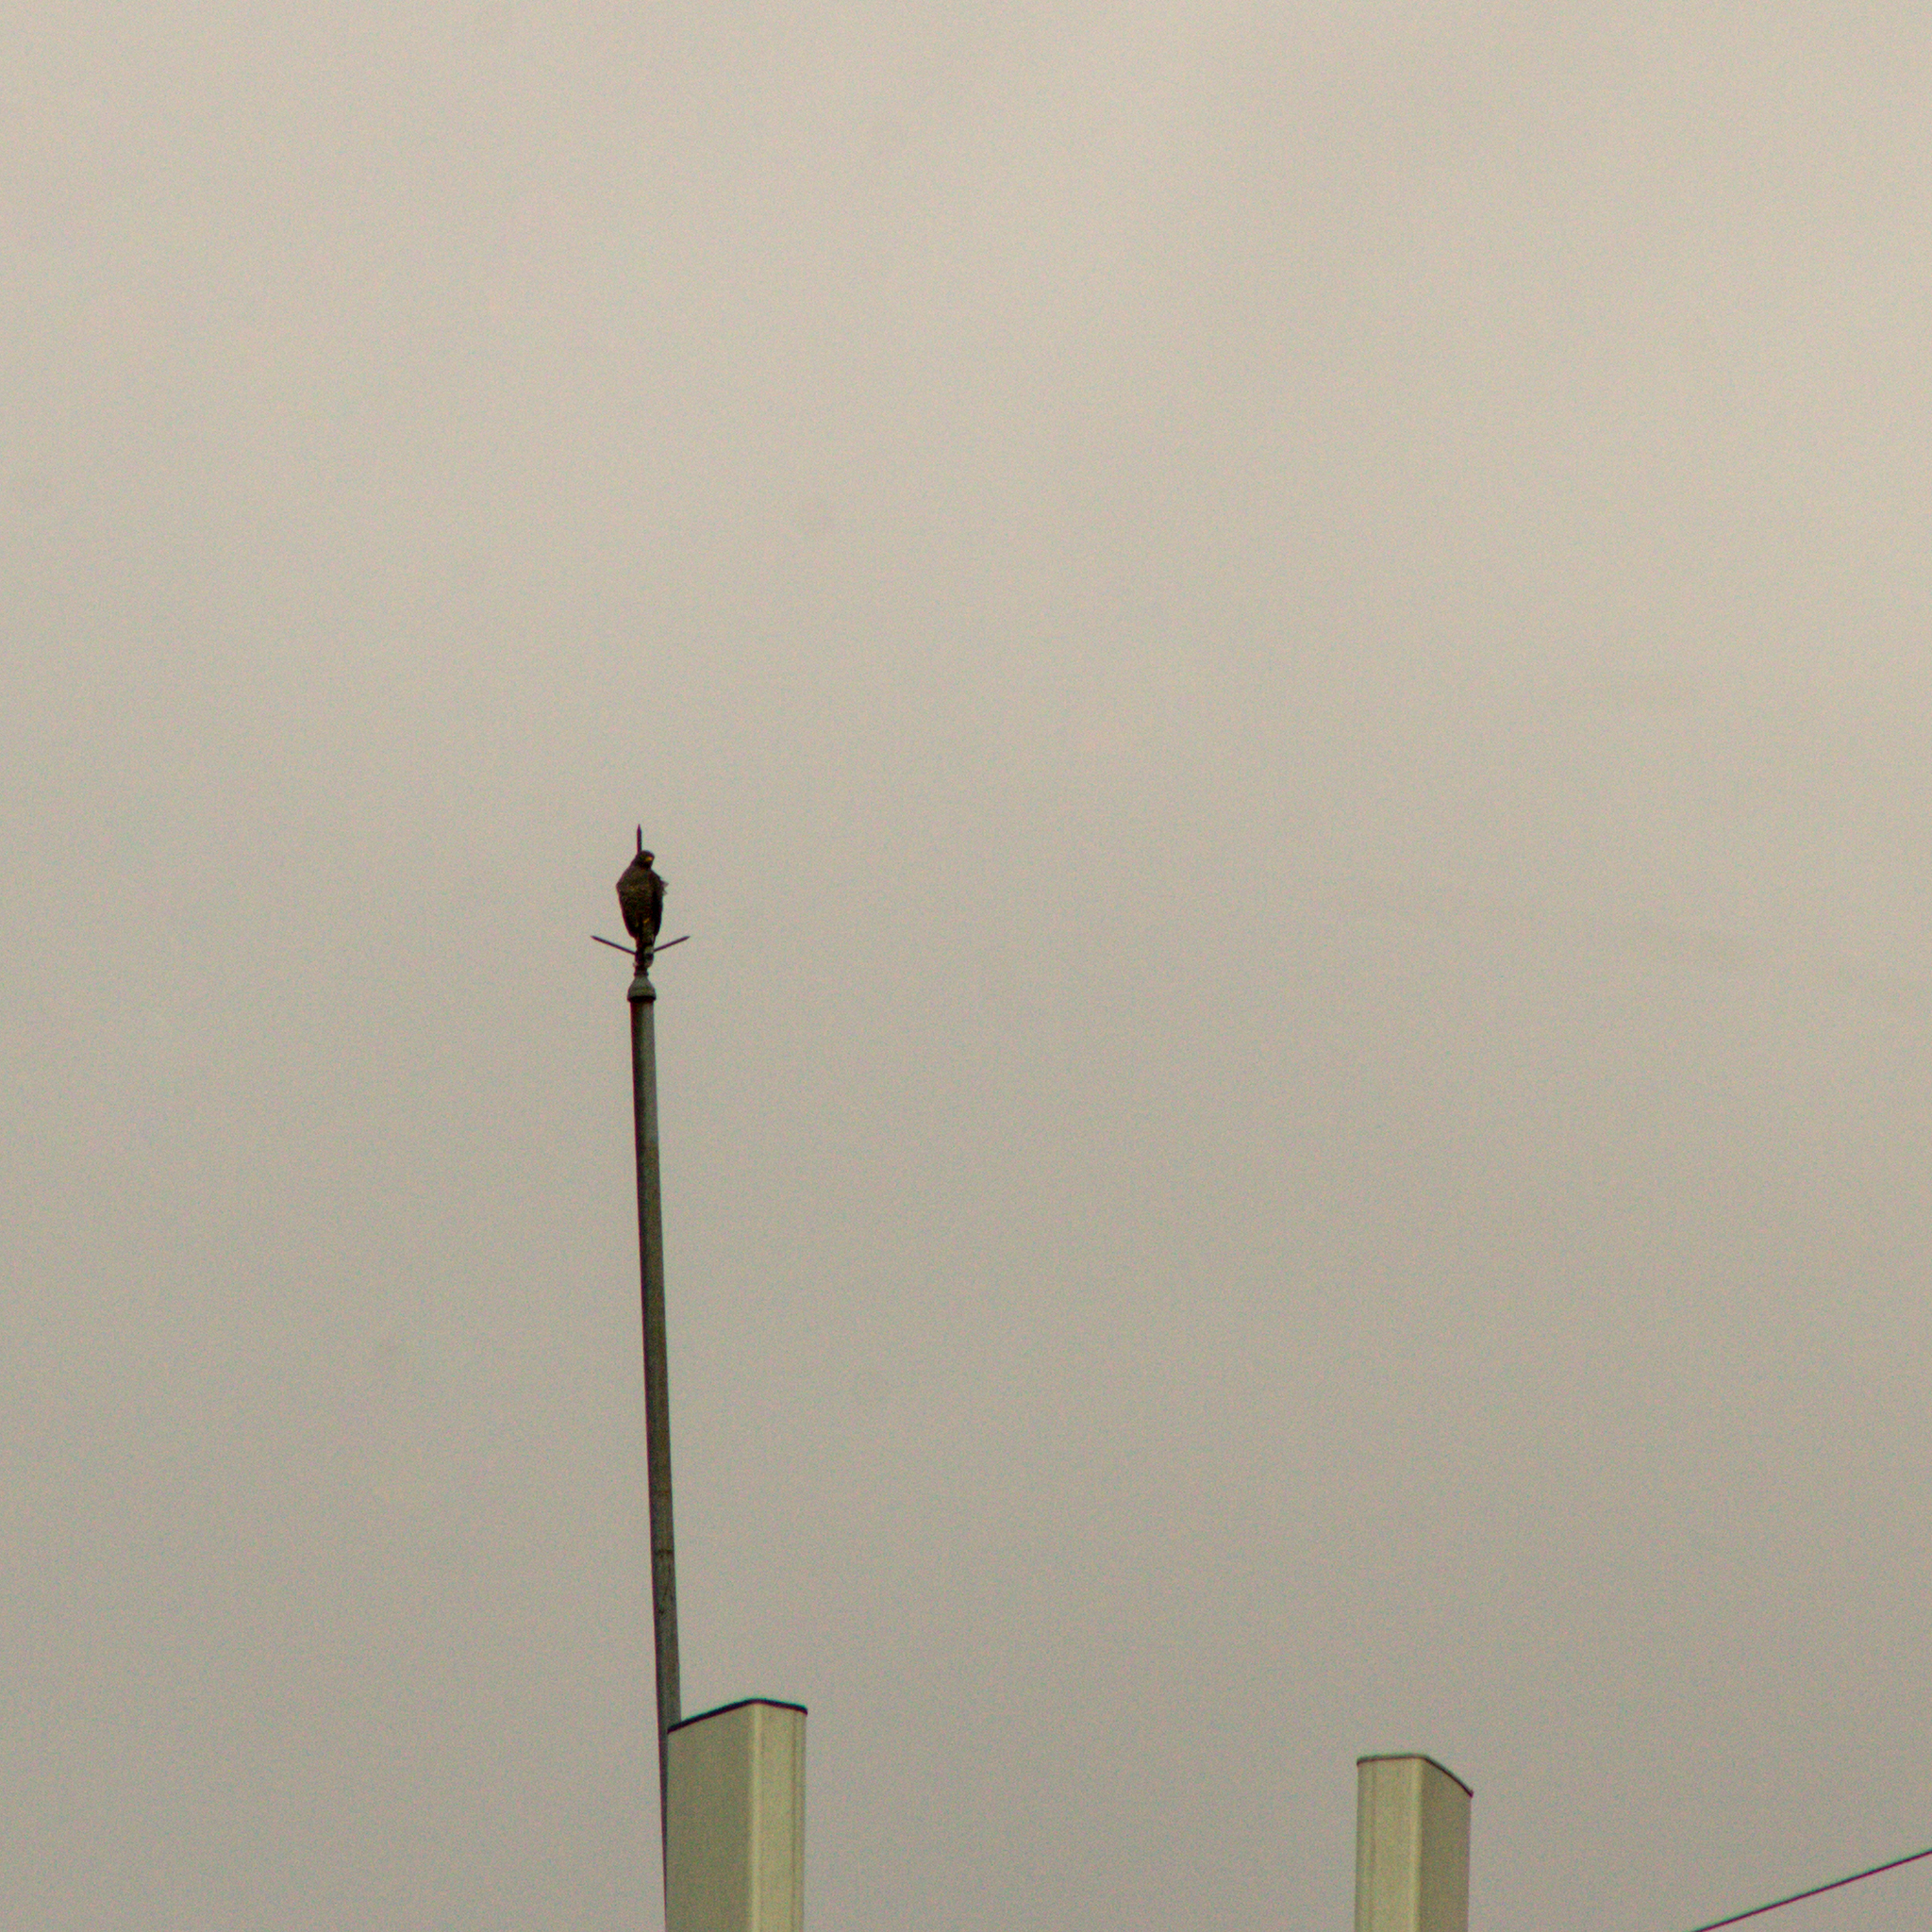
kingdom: Animalia
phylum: Chordata
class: Aves
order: Accipitriformes
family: Accipitridae
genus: Rupornis
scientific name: Rupornis magnirostris
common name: Roadside hawk
